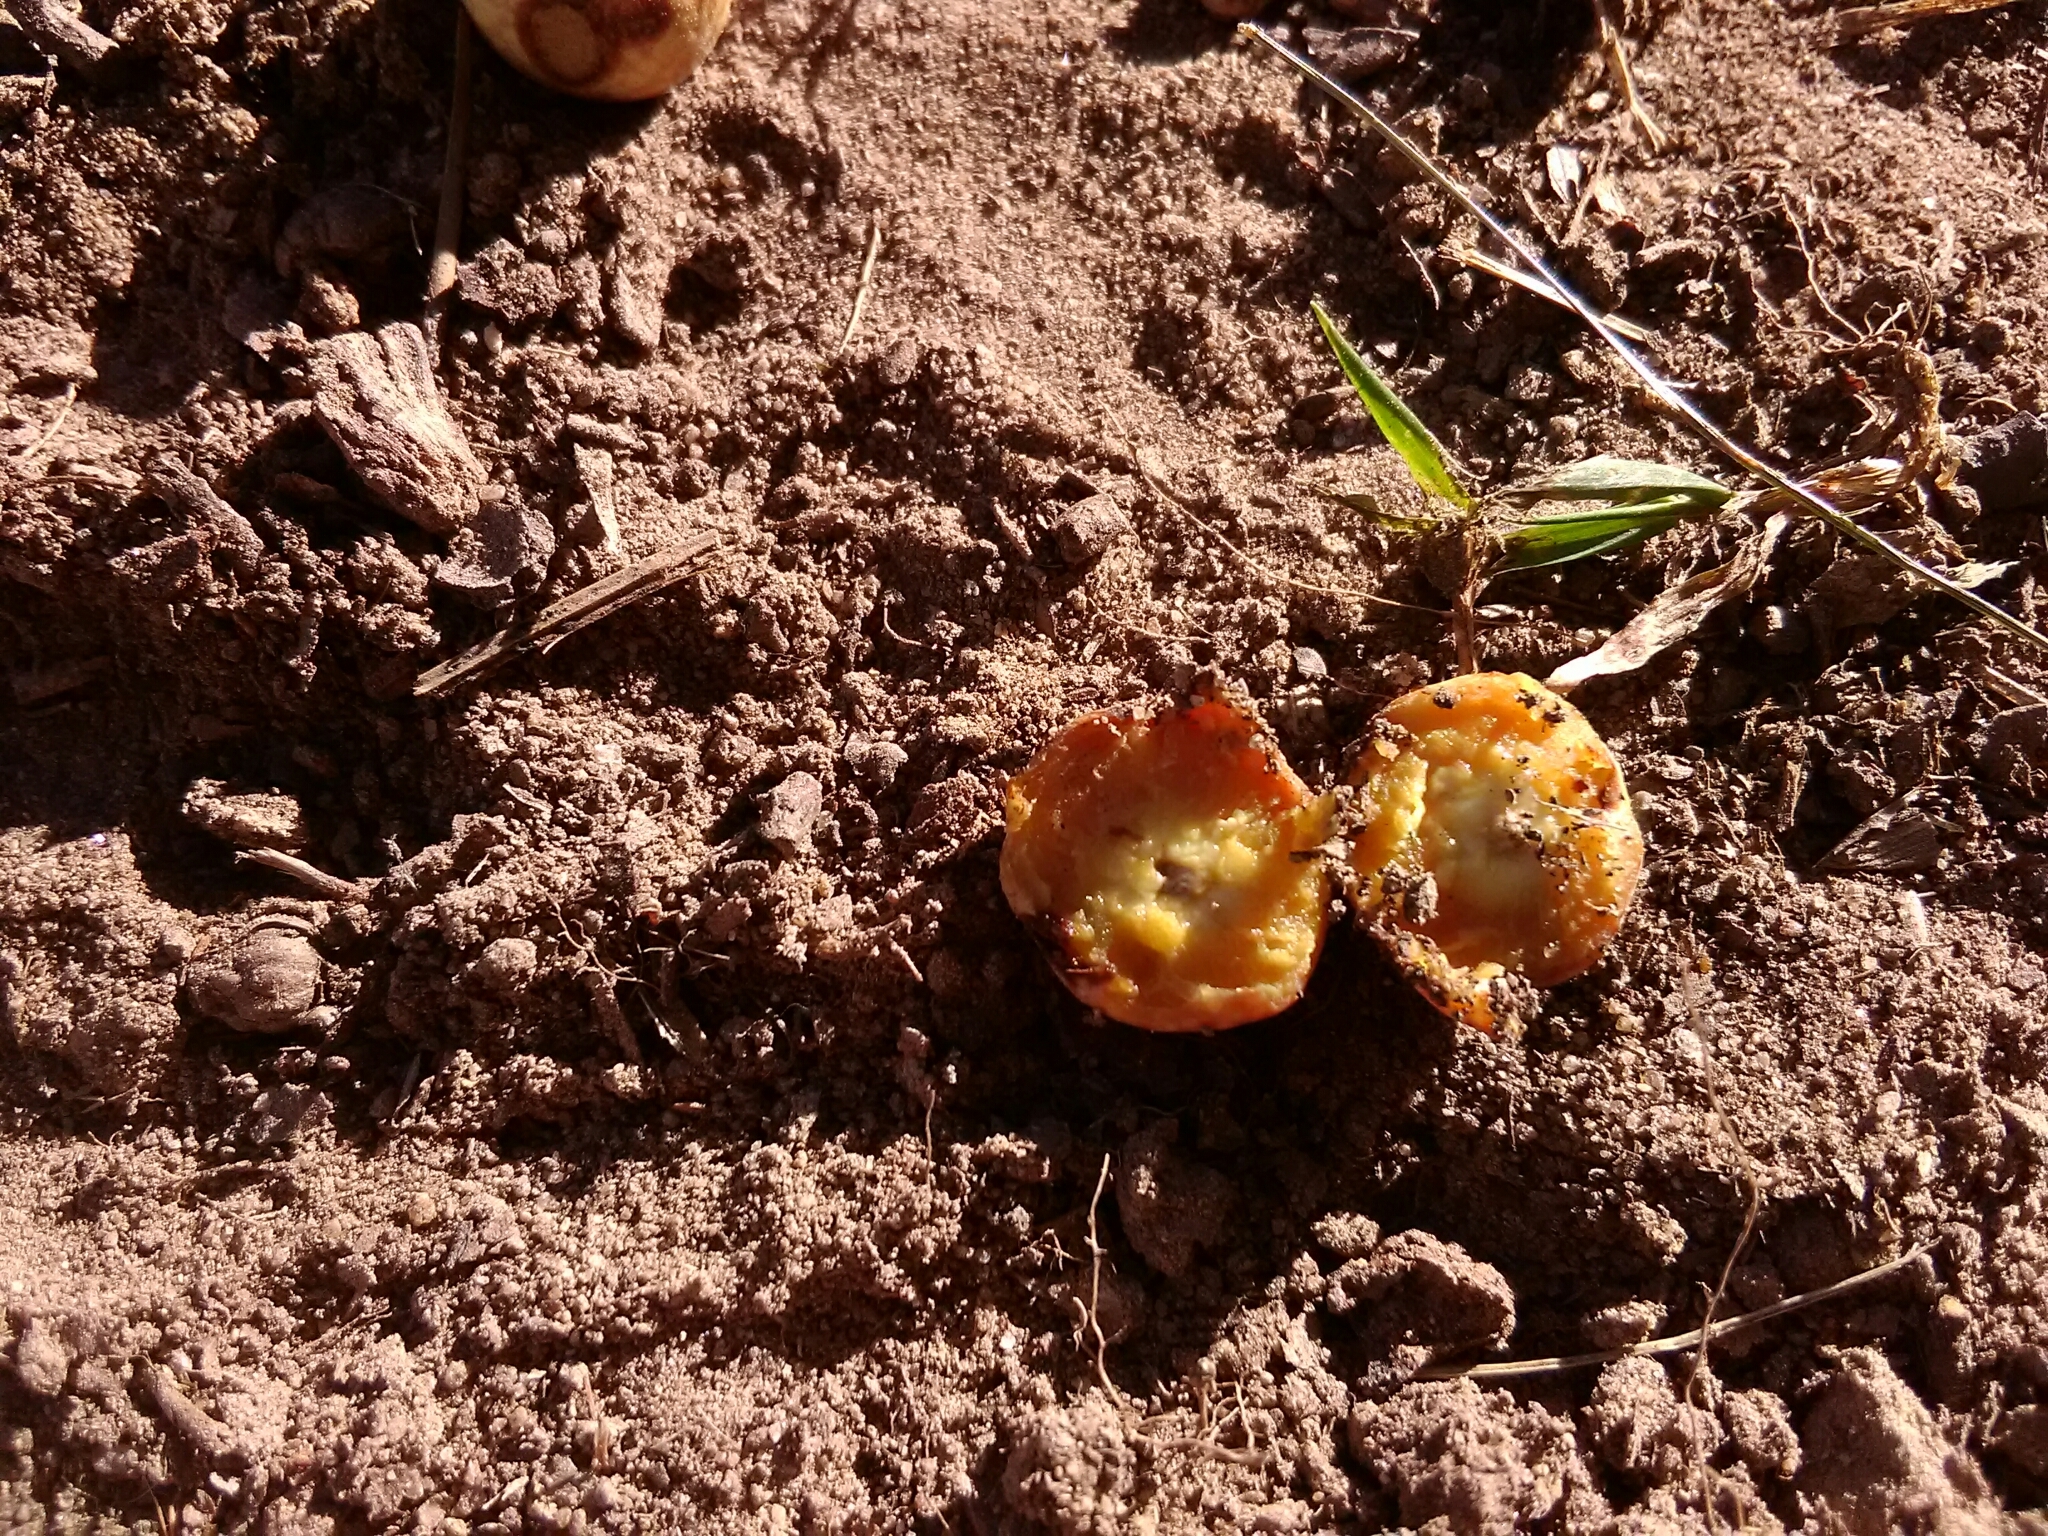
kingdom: Animalia
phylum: Arthropoda
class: Insecta
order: Hymenoptera
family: Cynipidae
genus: Amphibolips
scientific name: Amphibolips
